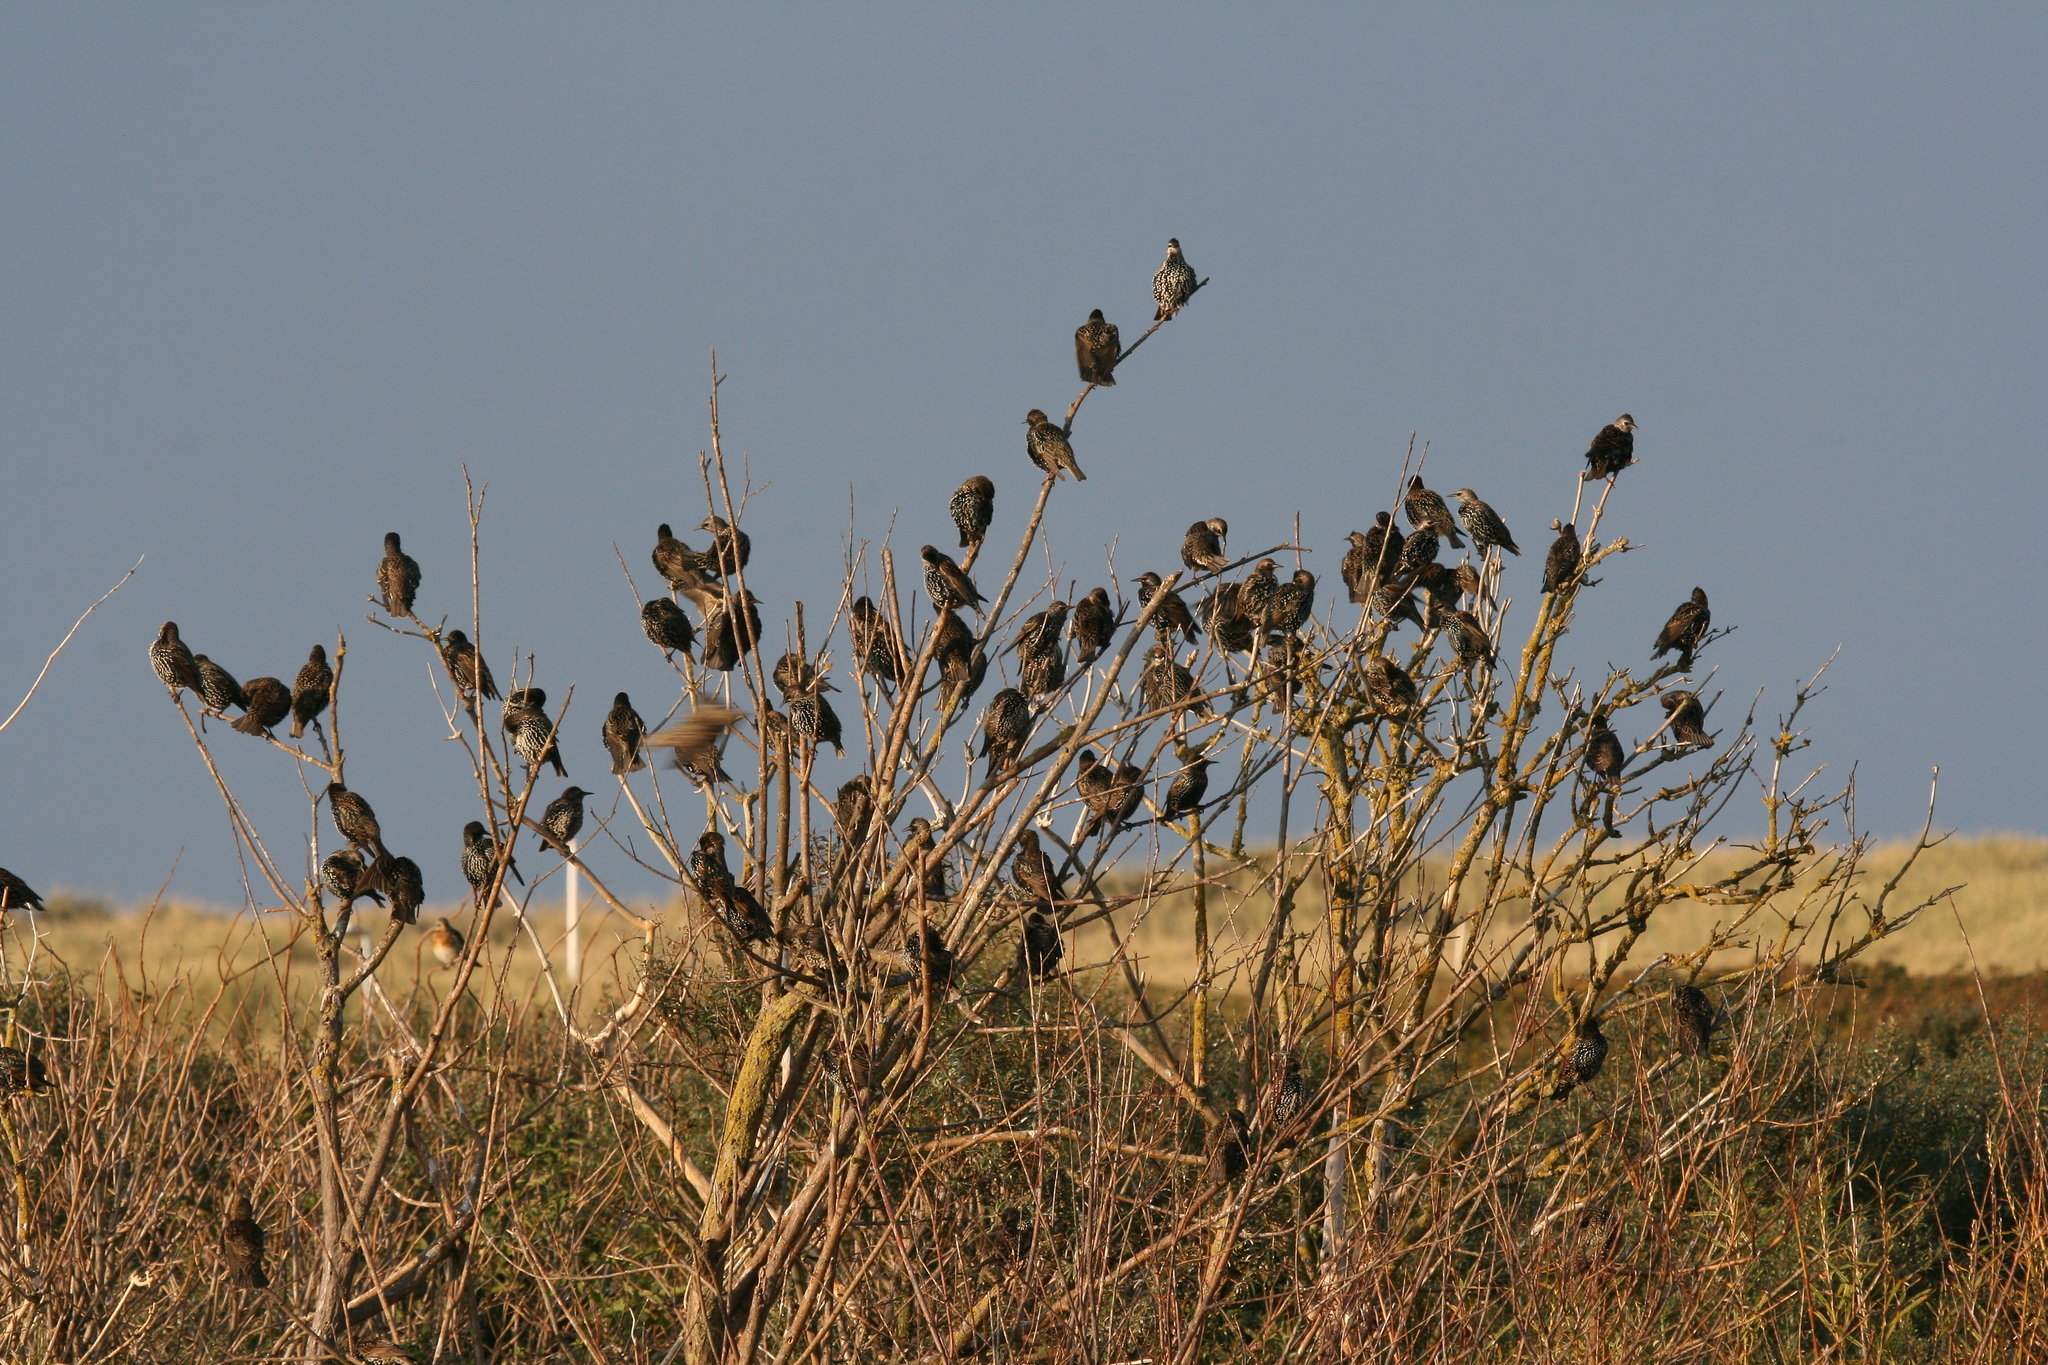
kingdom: Animalia
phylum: Chordata
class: Aves
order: Passeriformes
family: Sturnidae
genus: Sturnus
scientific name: Sturnus vulgaris
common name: Common starling
